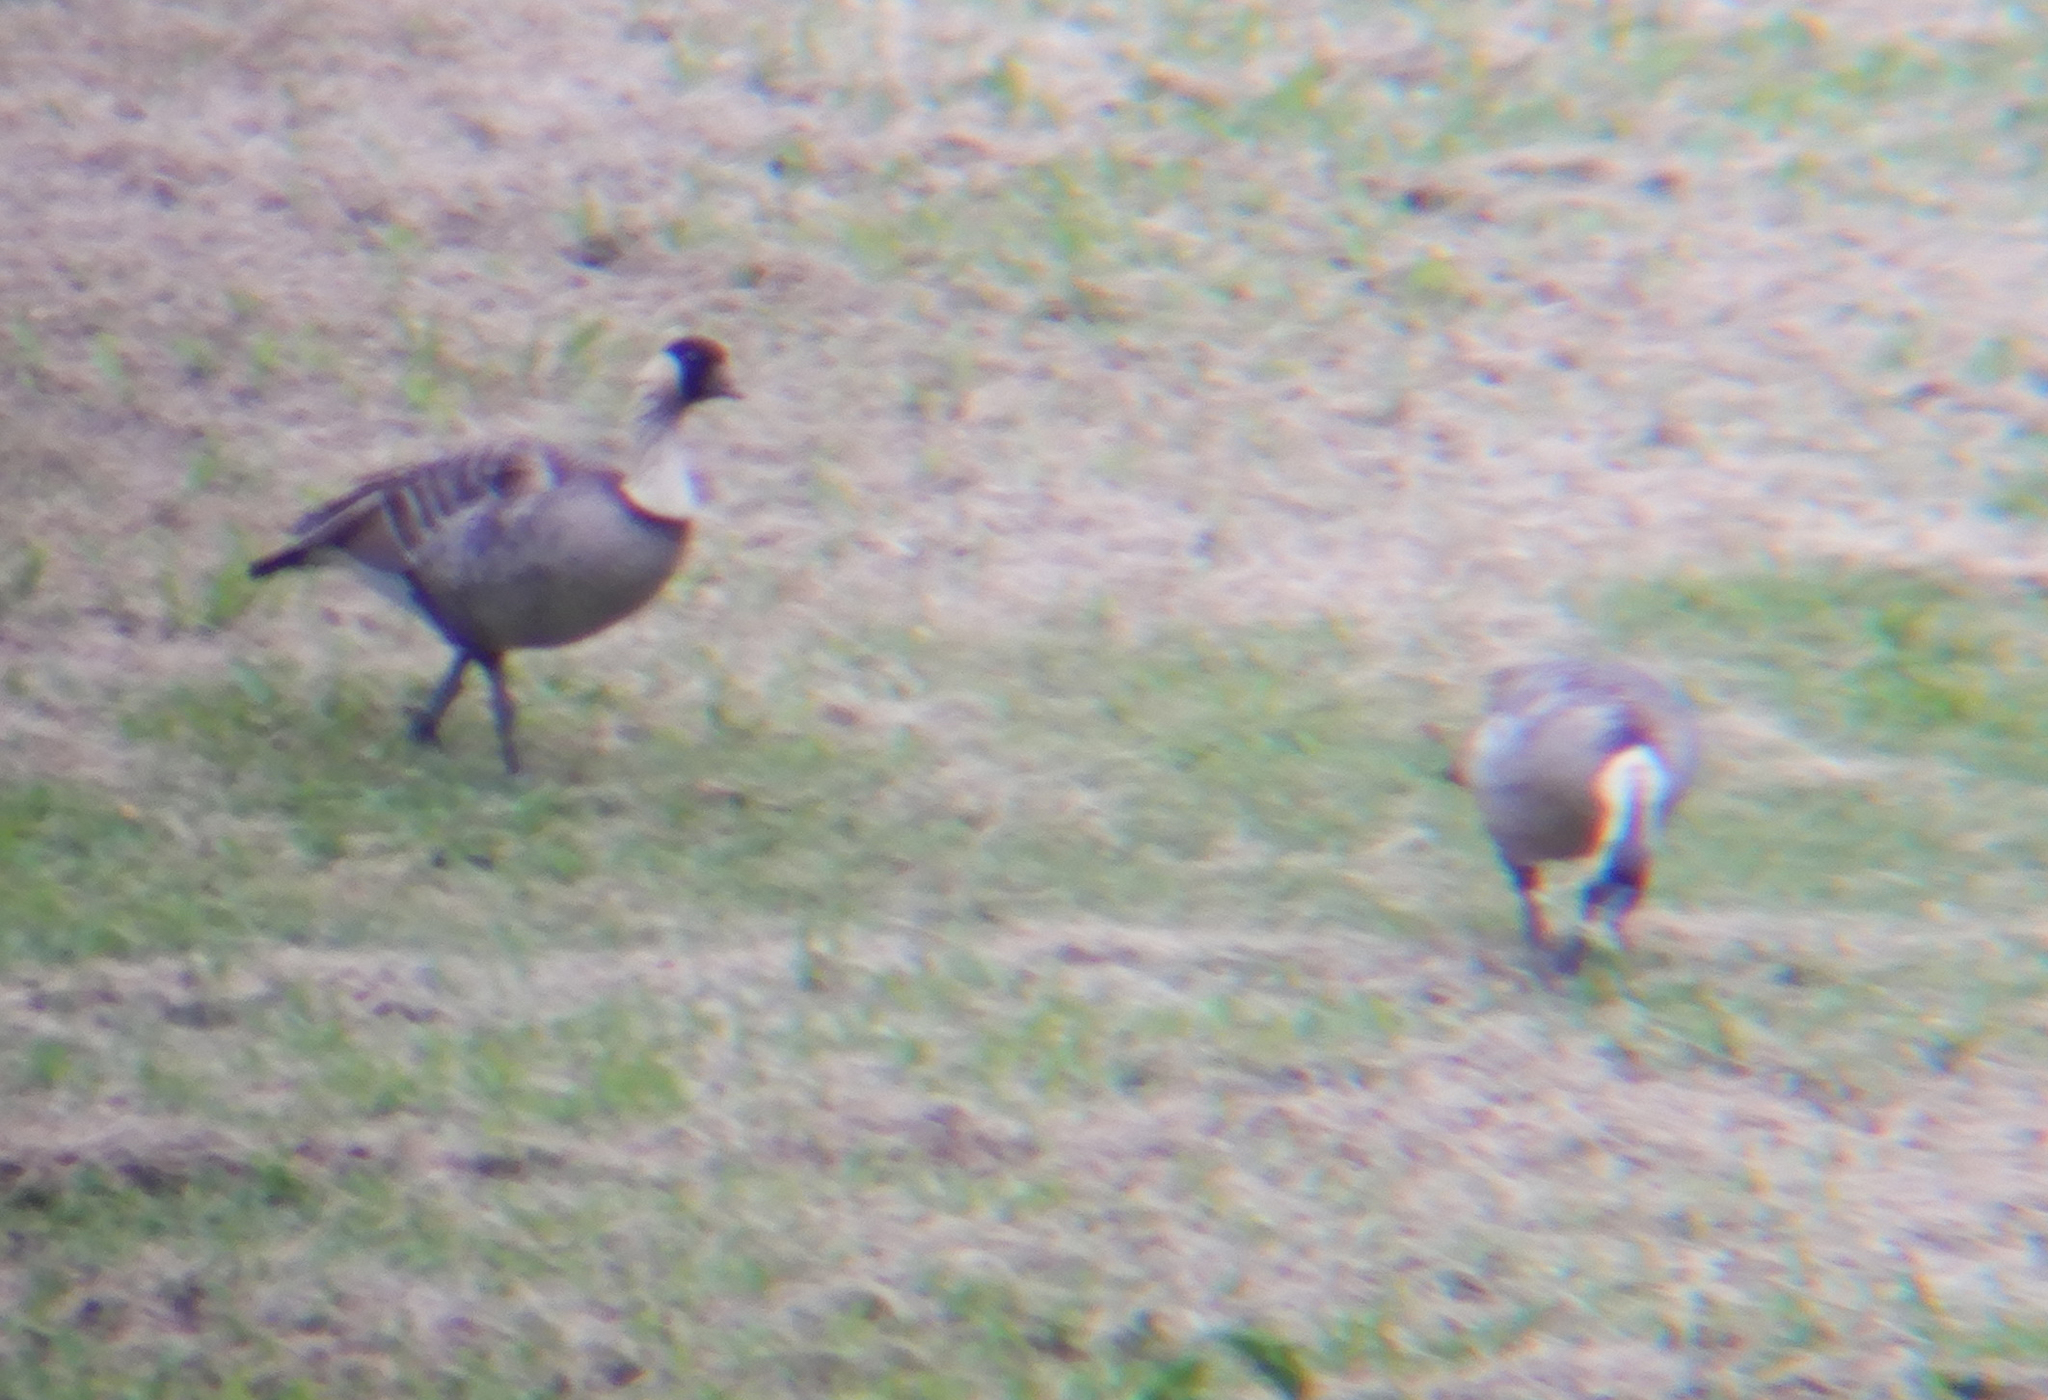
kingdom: Animalia
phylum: Chordata
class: Aves
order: Anseriformes
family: Anatidae
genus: Branta
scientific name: Branta sandvicensis
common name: Nene
